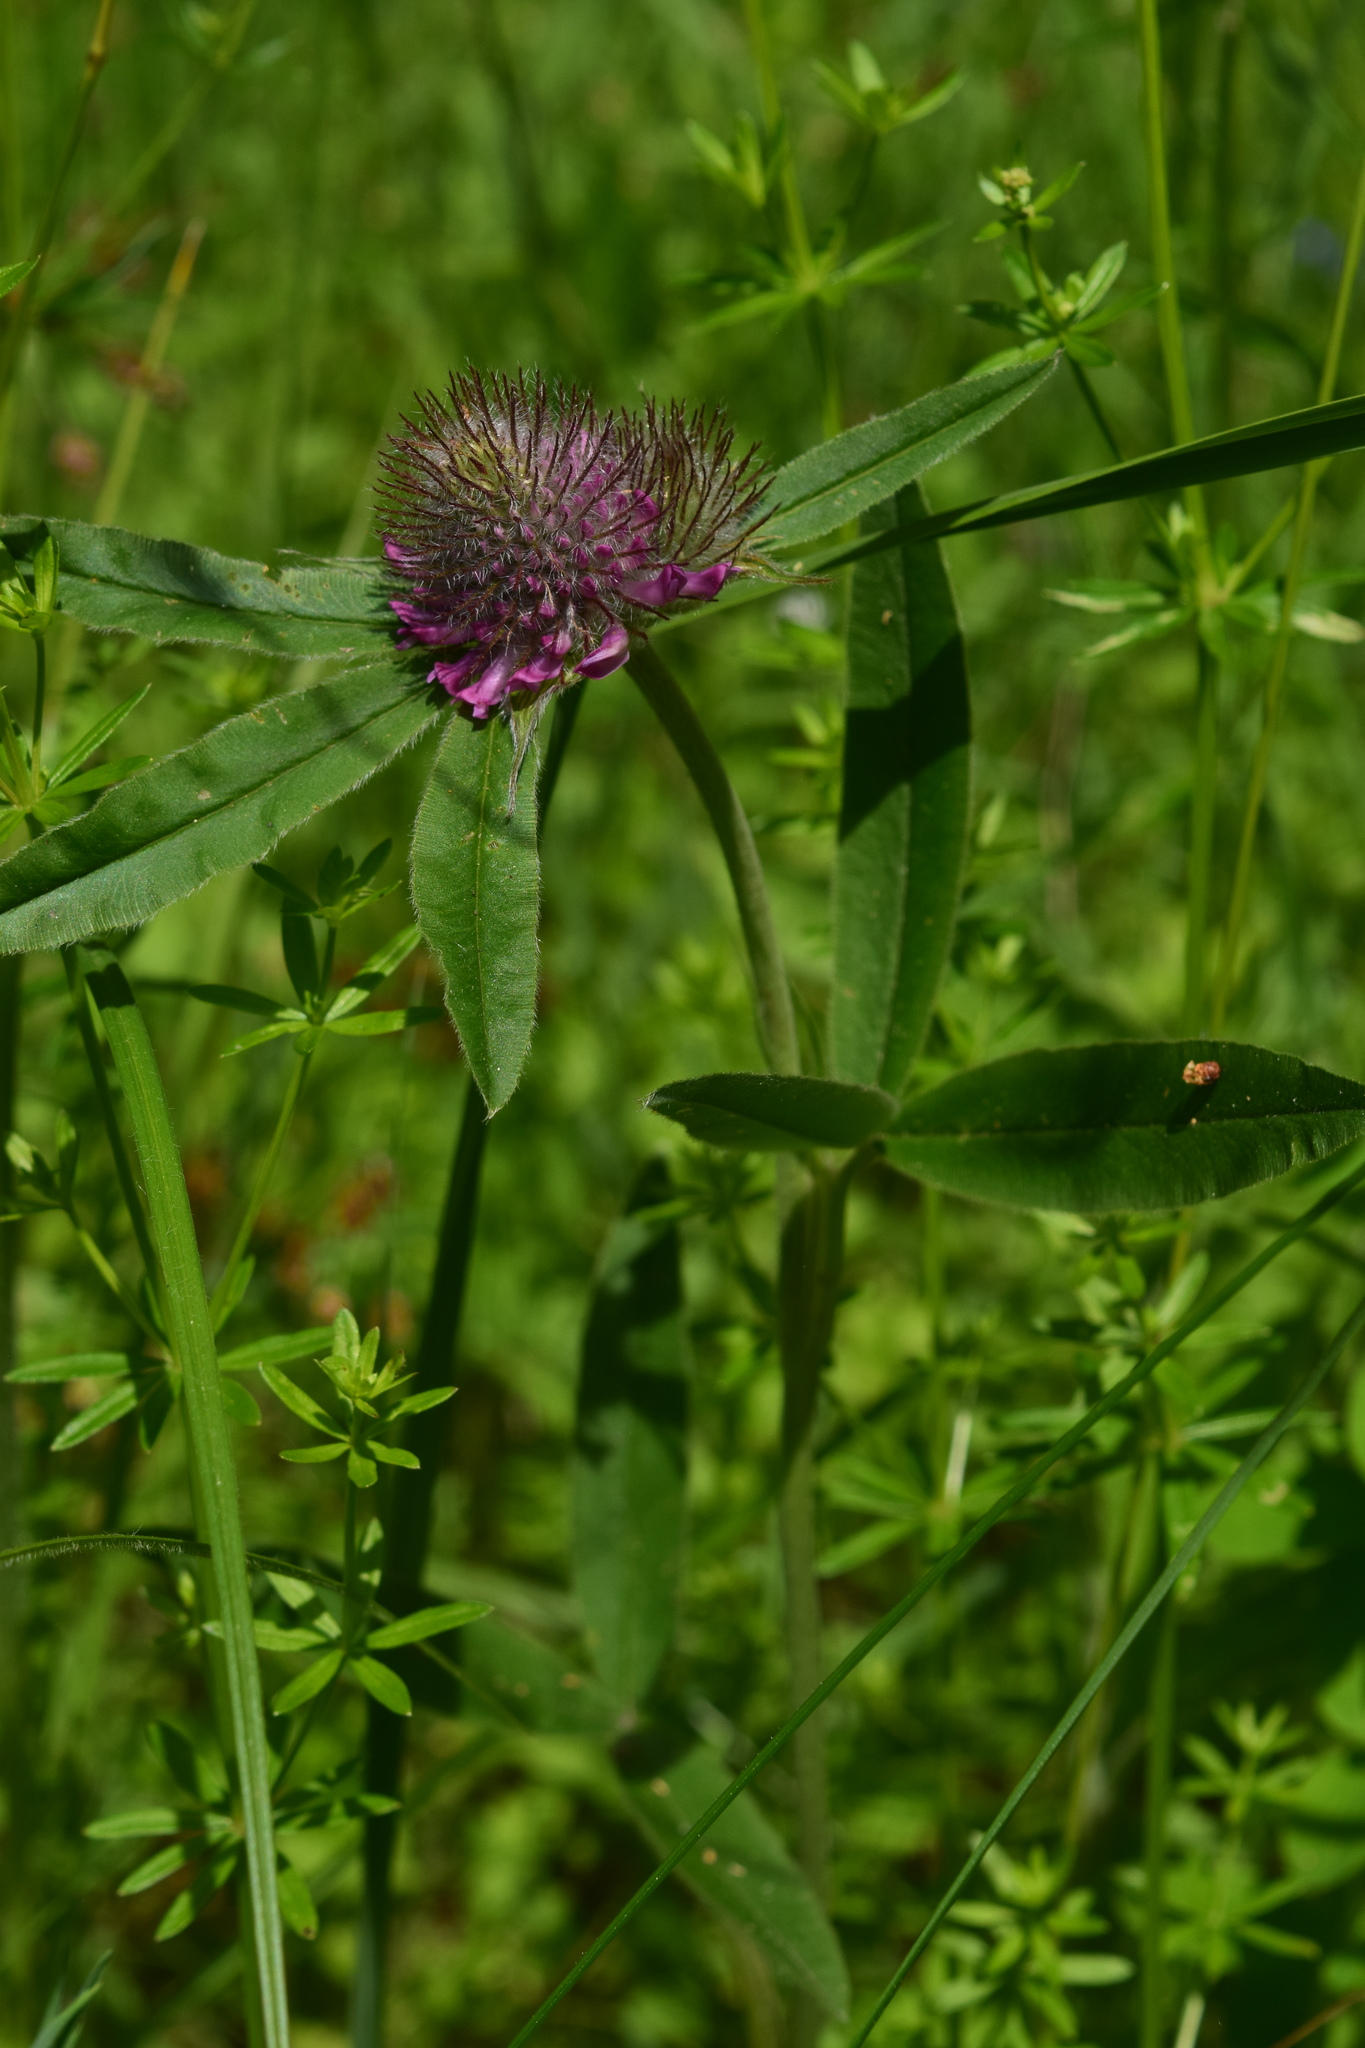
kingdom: Plantae
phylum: Tracheophyta
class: Magnoliopsida
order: Fabales
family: Fabaceae
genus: Trifolium
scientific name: Trifolium alpestre
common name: Owl-head clover
